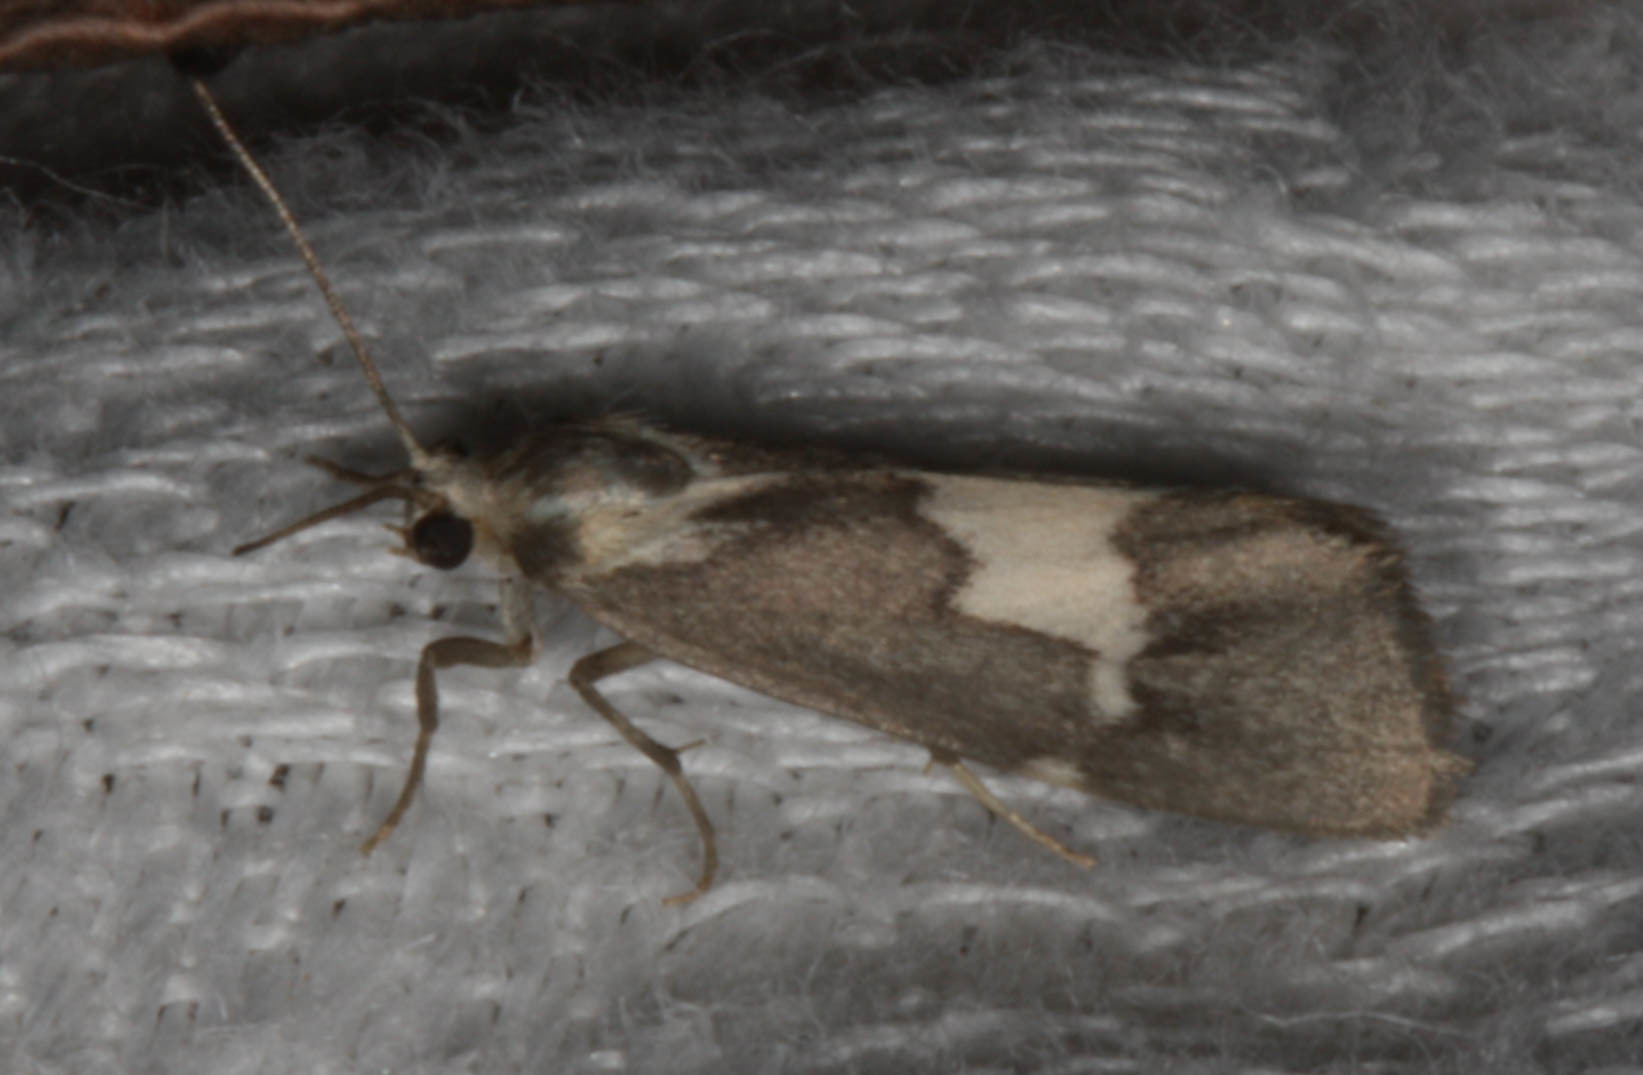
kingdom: Animalia
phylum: Arthropoda
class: Insecta
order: Lepidoptera
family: Erebidae
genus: Cisthene
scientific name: Cisthene deserta
